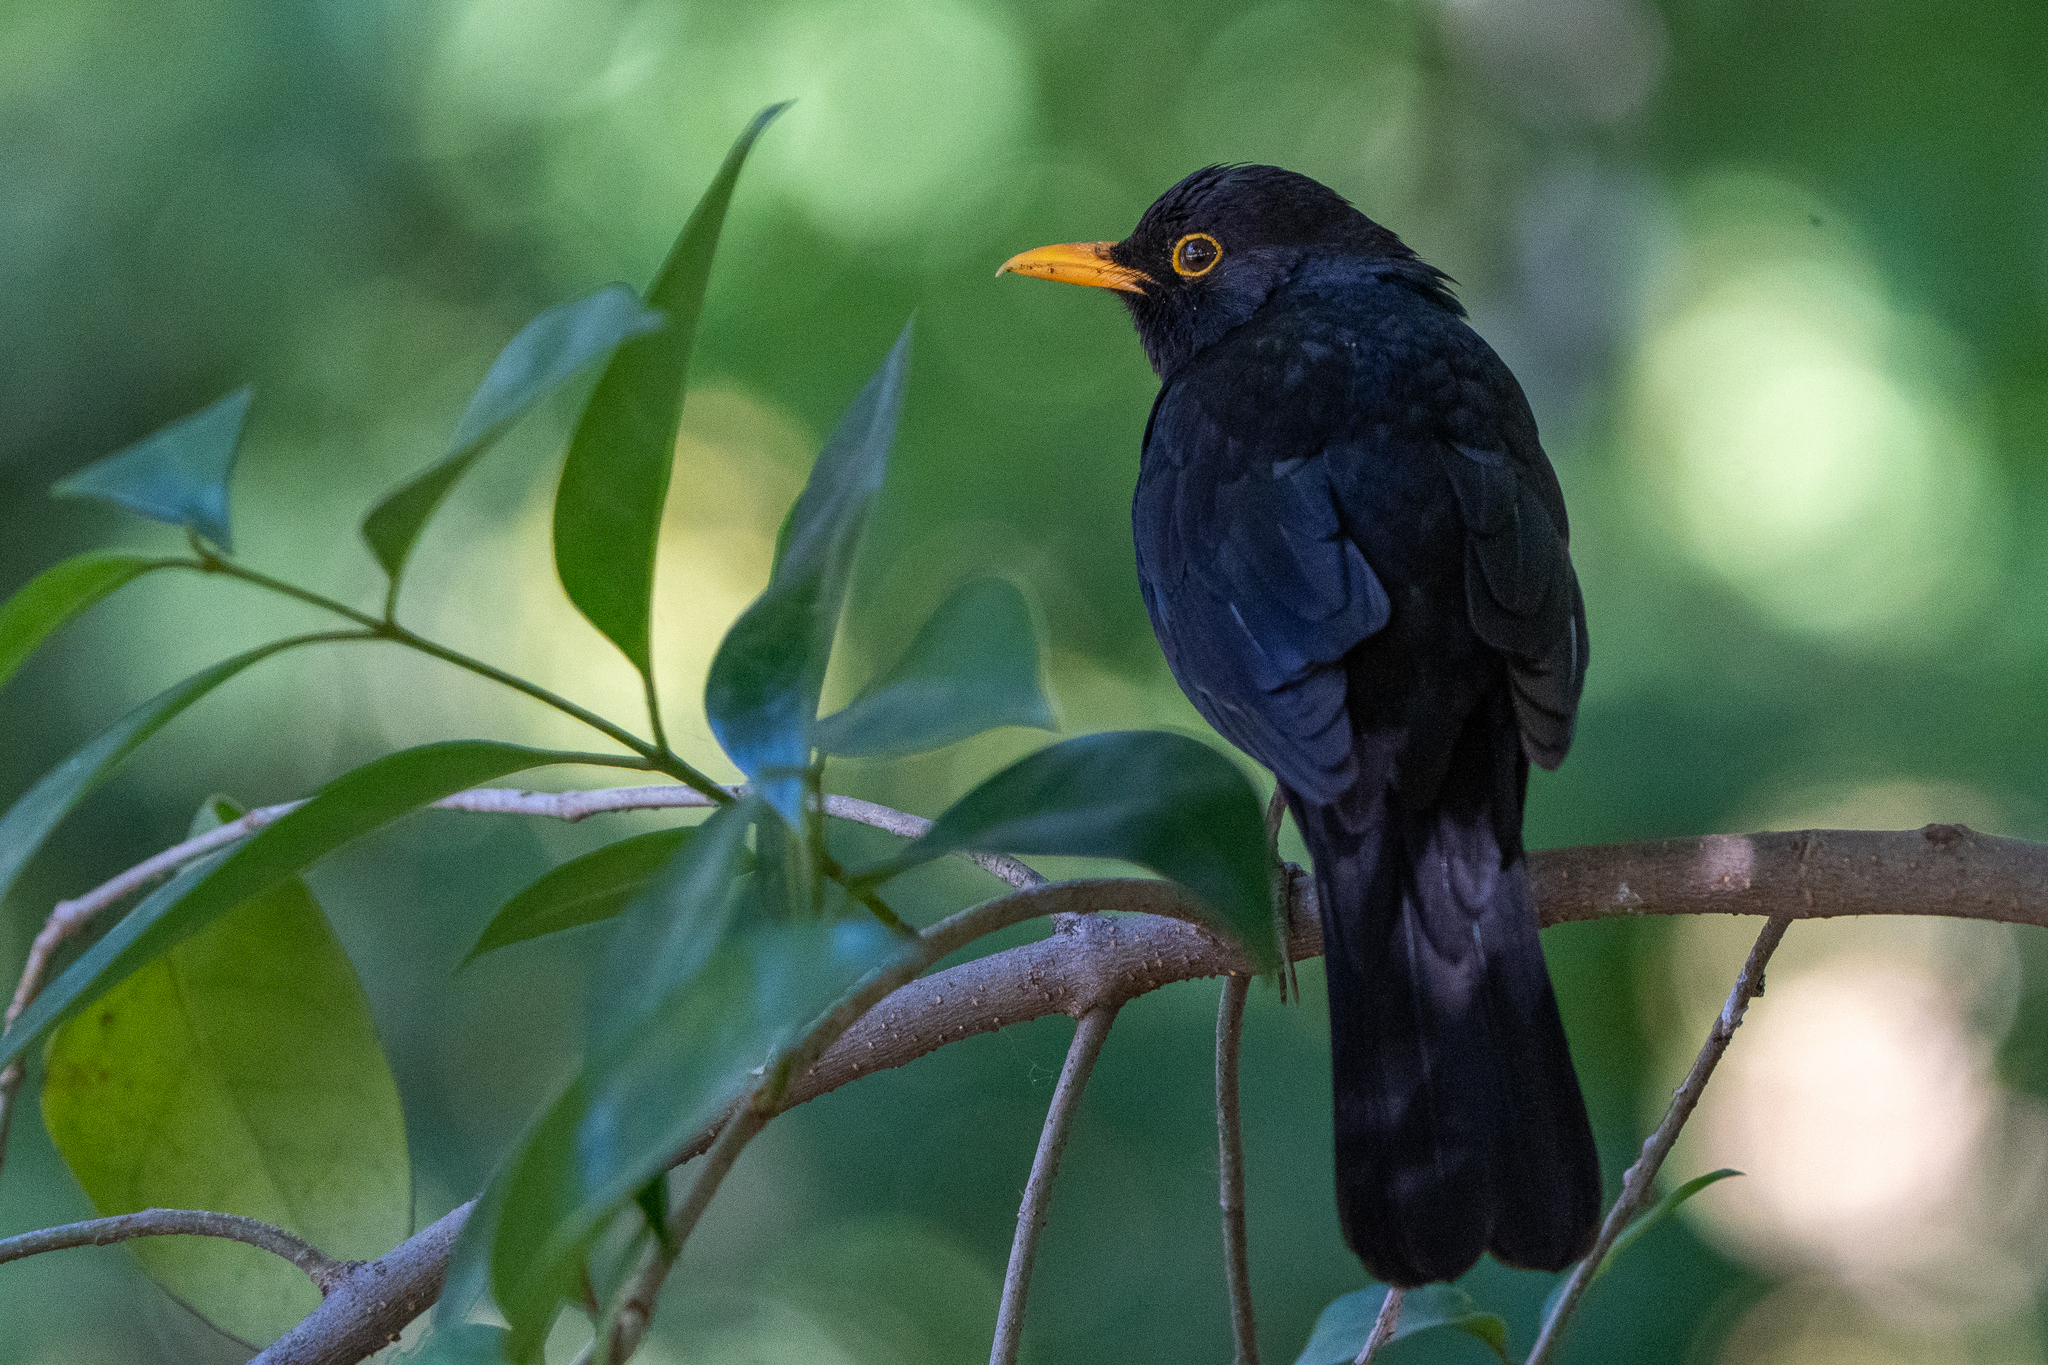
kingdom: Animalia
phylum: Chordata
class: Aves
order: Passeriformes
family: Turdidae
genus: Turdus
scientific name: Turdus merula
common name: Common blackbird
